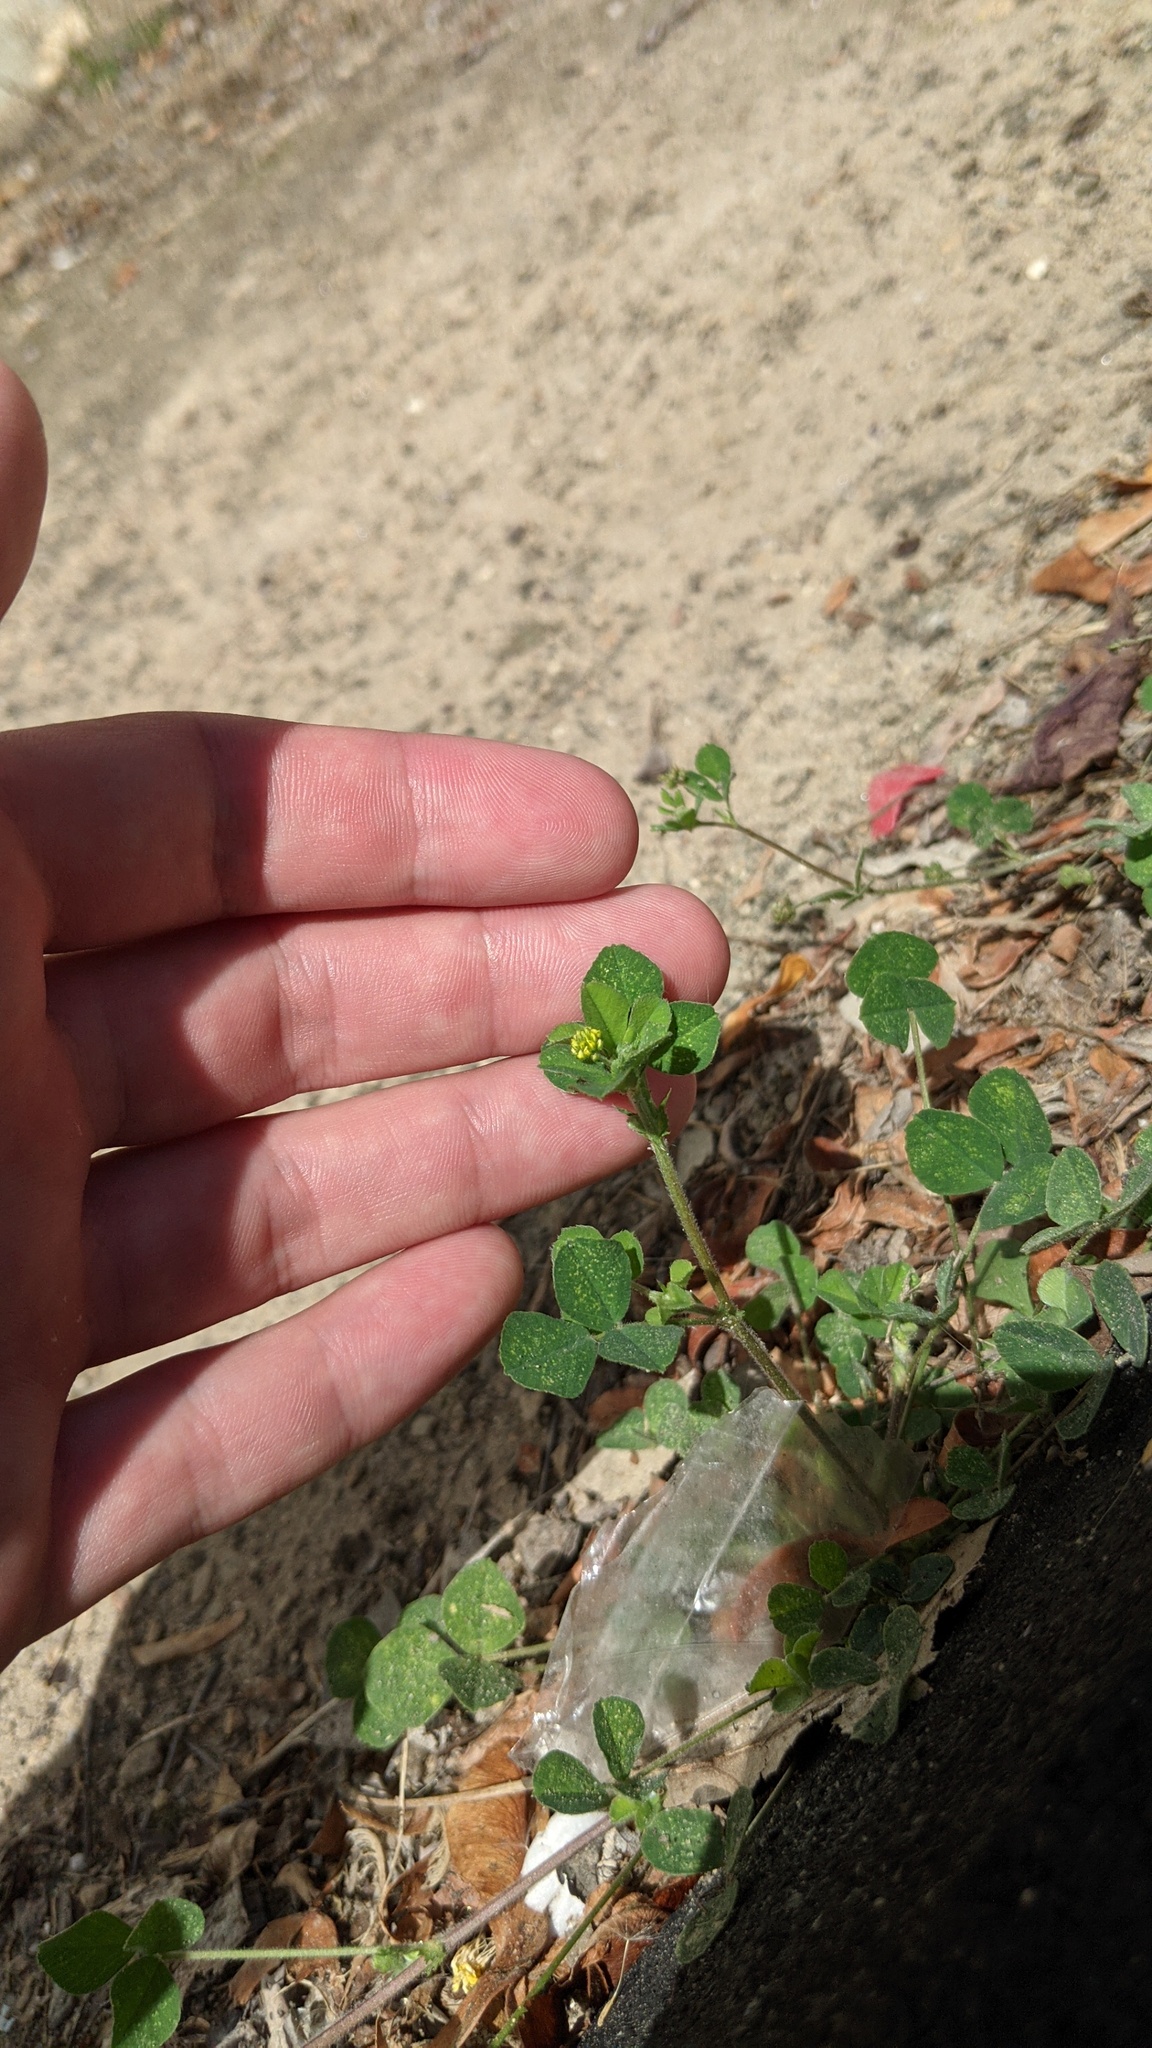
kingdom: Plantae
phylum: Tracheophyta
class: Magnoliopsida
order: Fabales
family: Fabaceae
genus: Medicago
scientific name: Medicago lupulina
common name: Black medick
